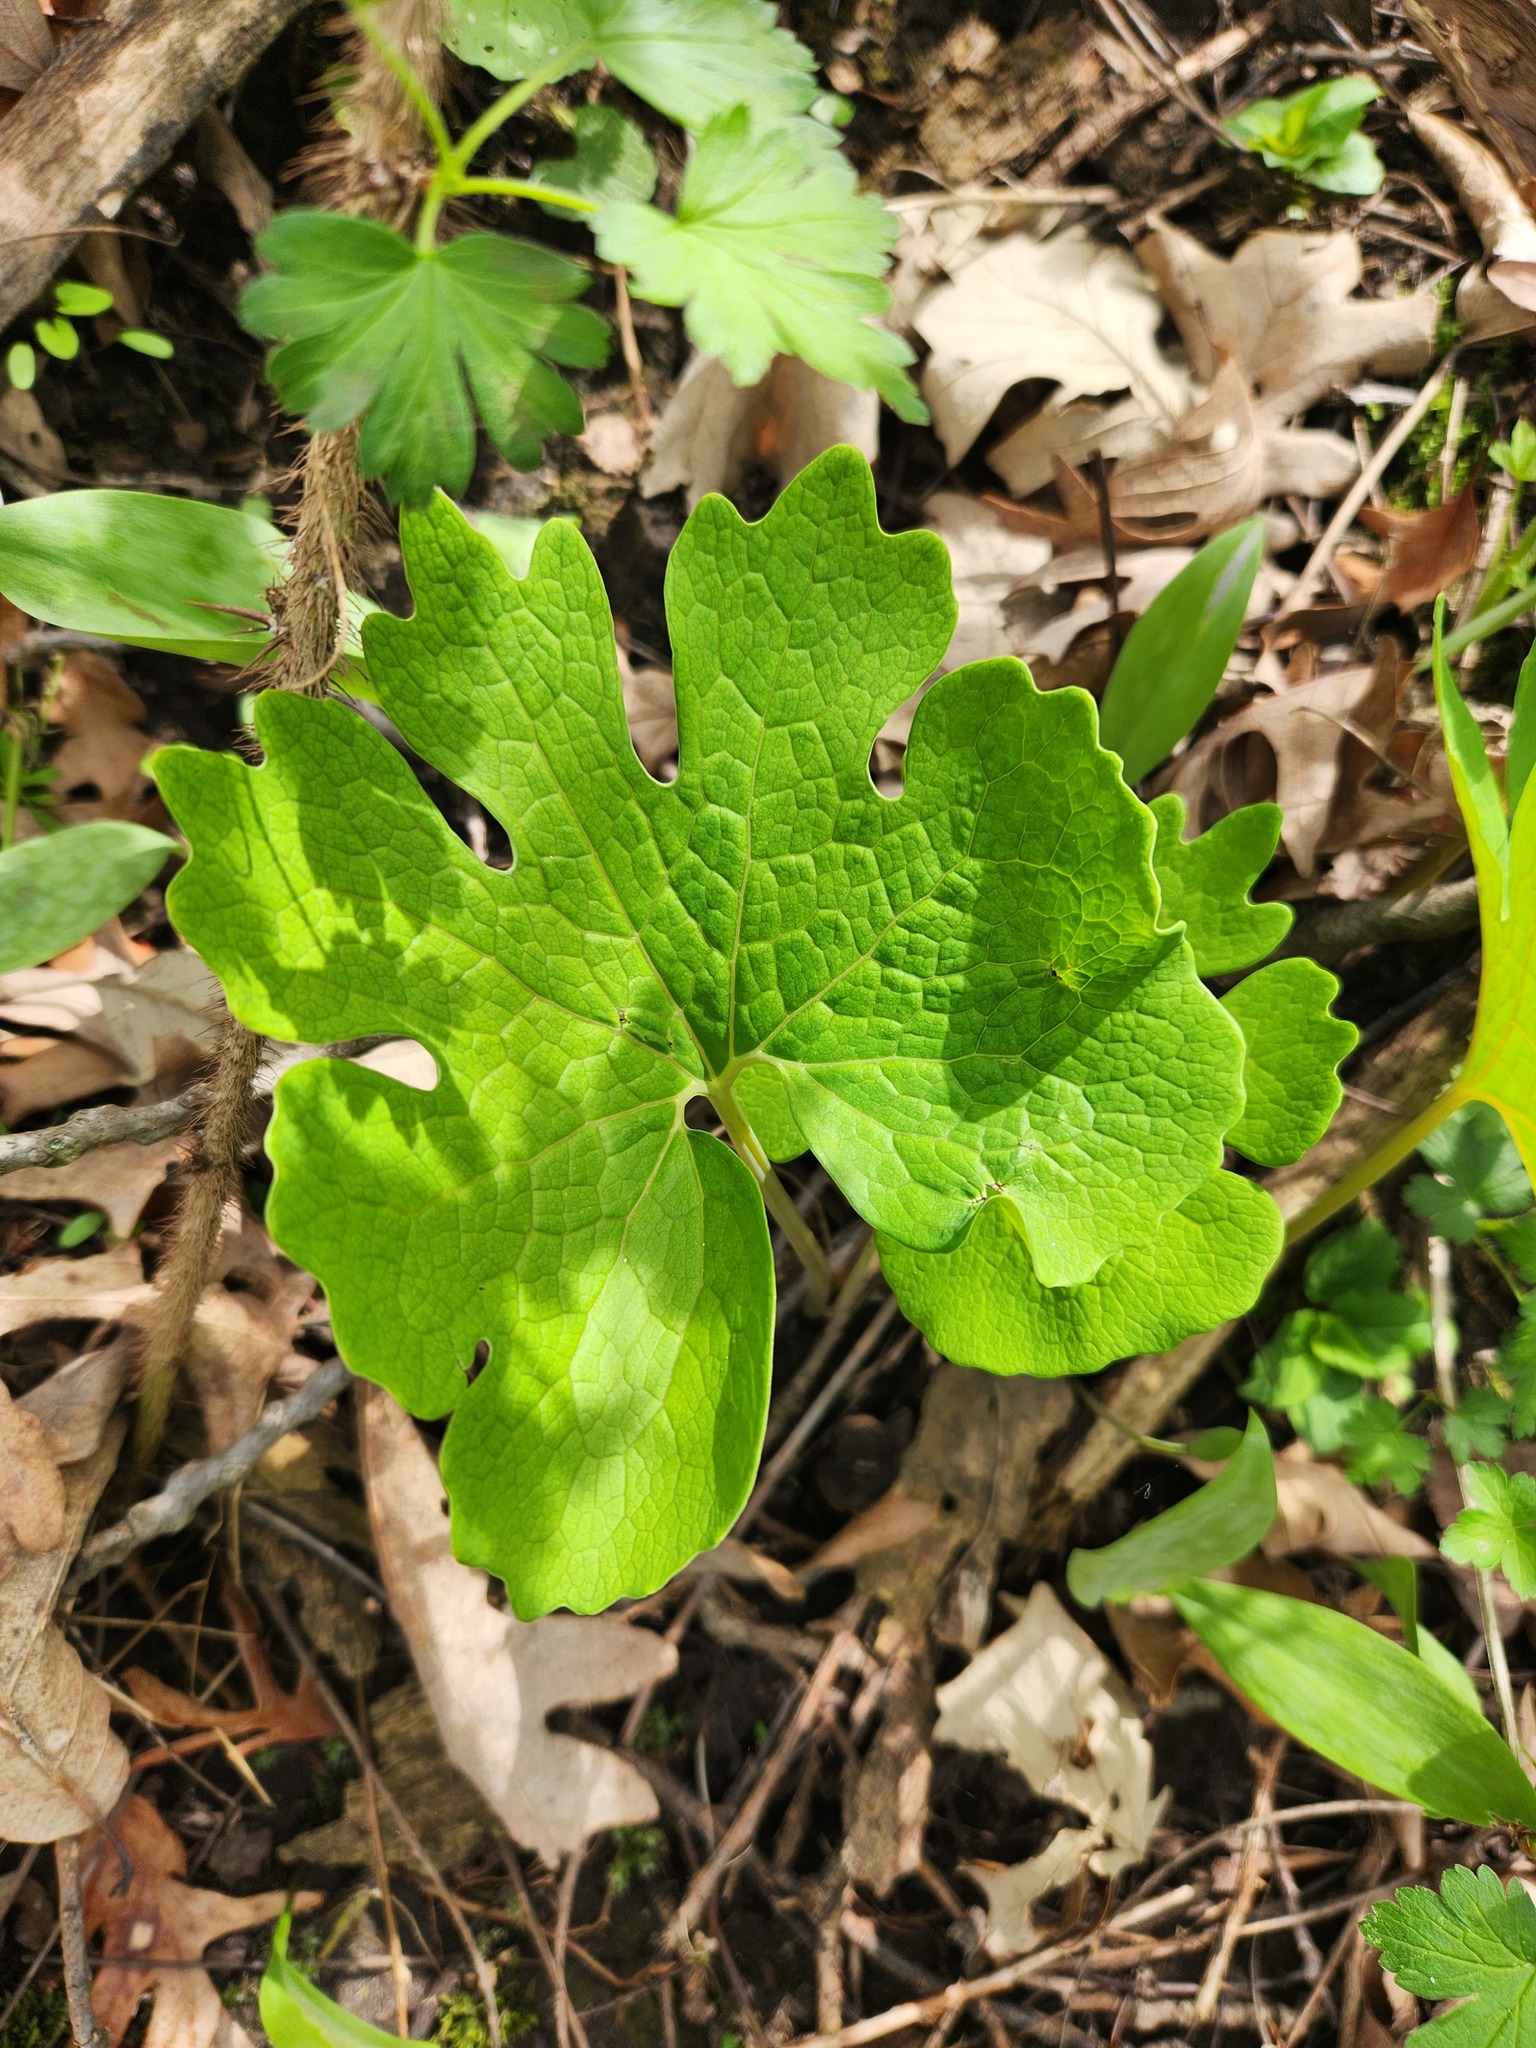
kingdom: Plantae
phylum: Tracheophyta
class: Magnoliopsida
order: Ranunculales
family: Papaveraceae
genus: Sanguinaria
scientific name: Sanguinaria canadensis
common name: Bloodroot
